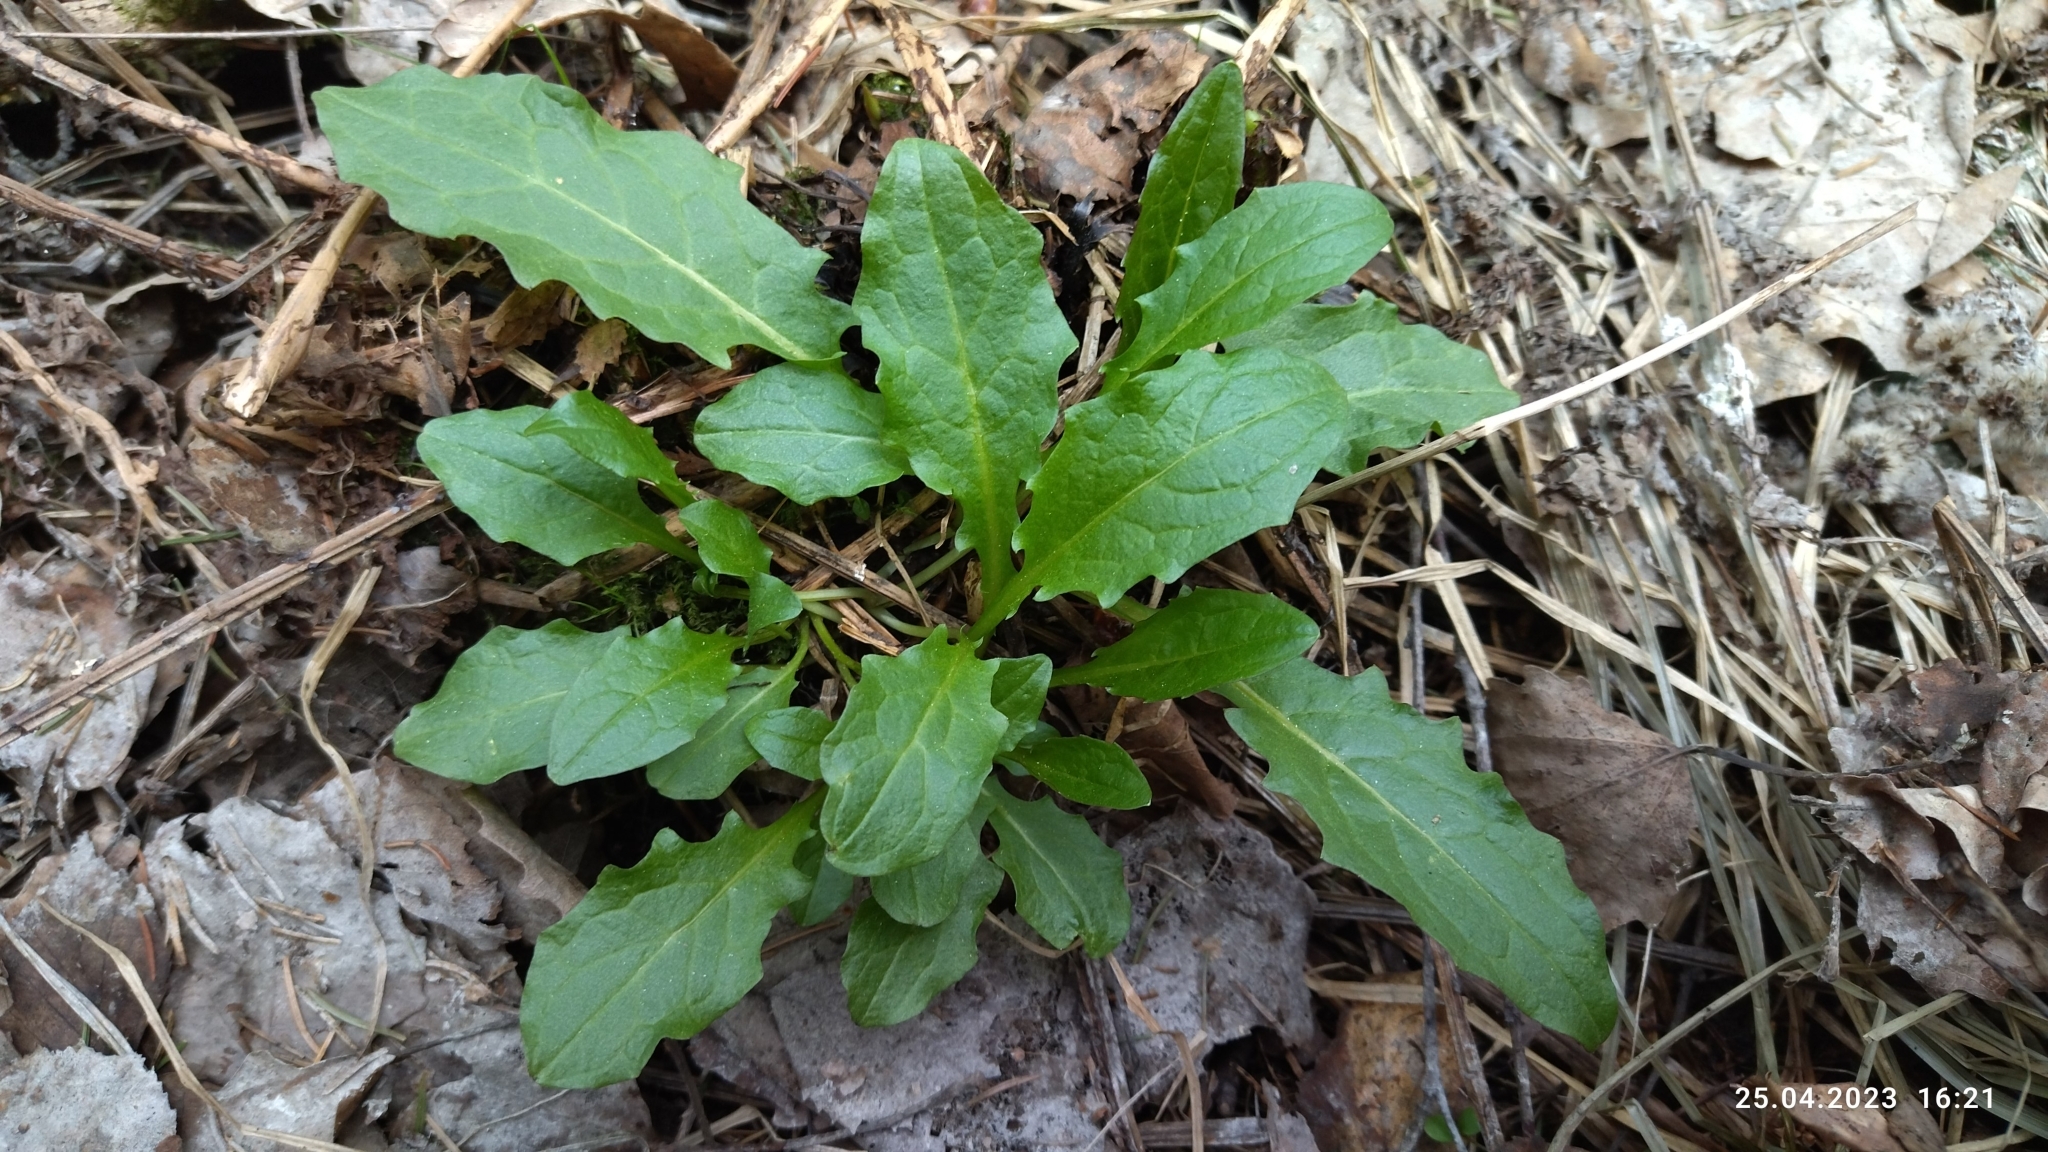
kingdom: Plantae
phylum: Tracheophyta
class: Magnoliopsida
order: Asterales
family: Asteraceae
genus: Crepis
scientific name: Crepis paludosa
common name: Marsh hawk's-beard
